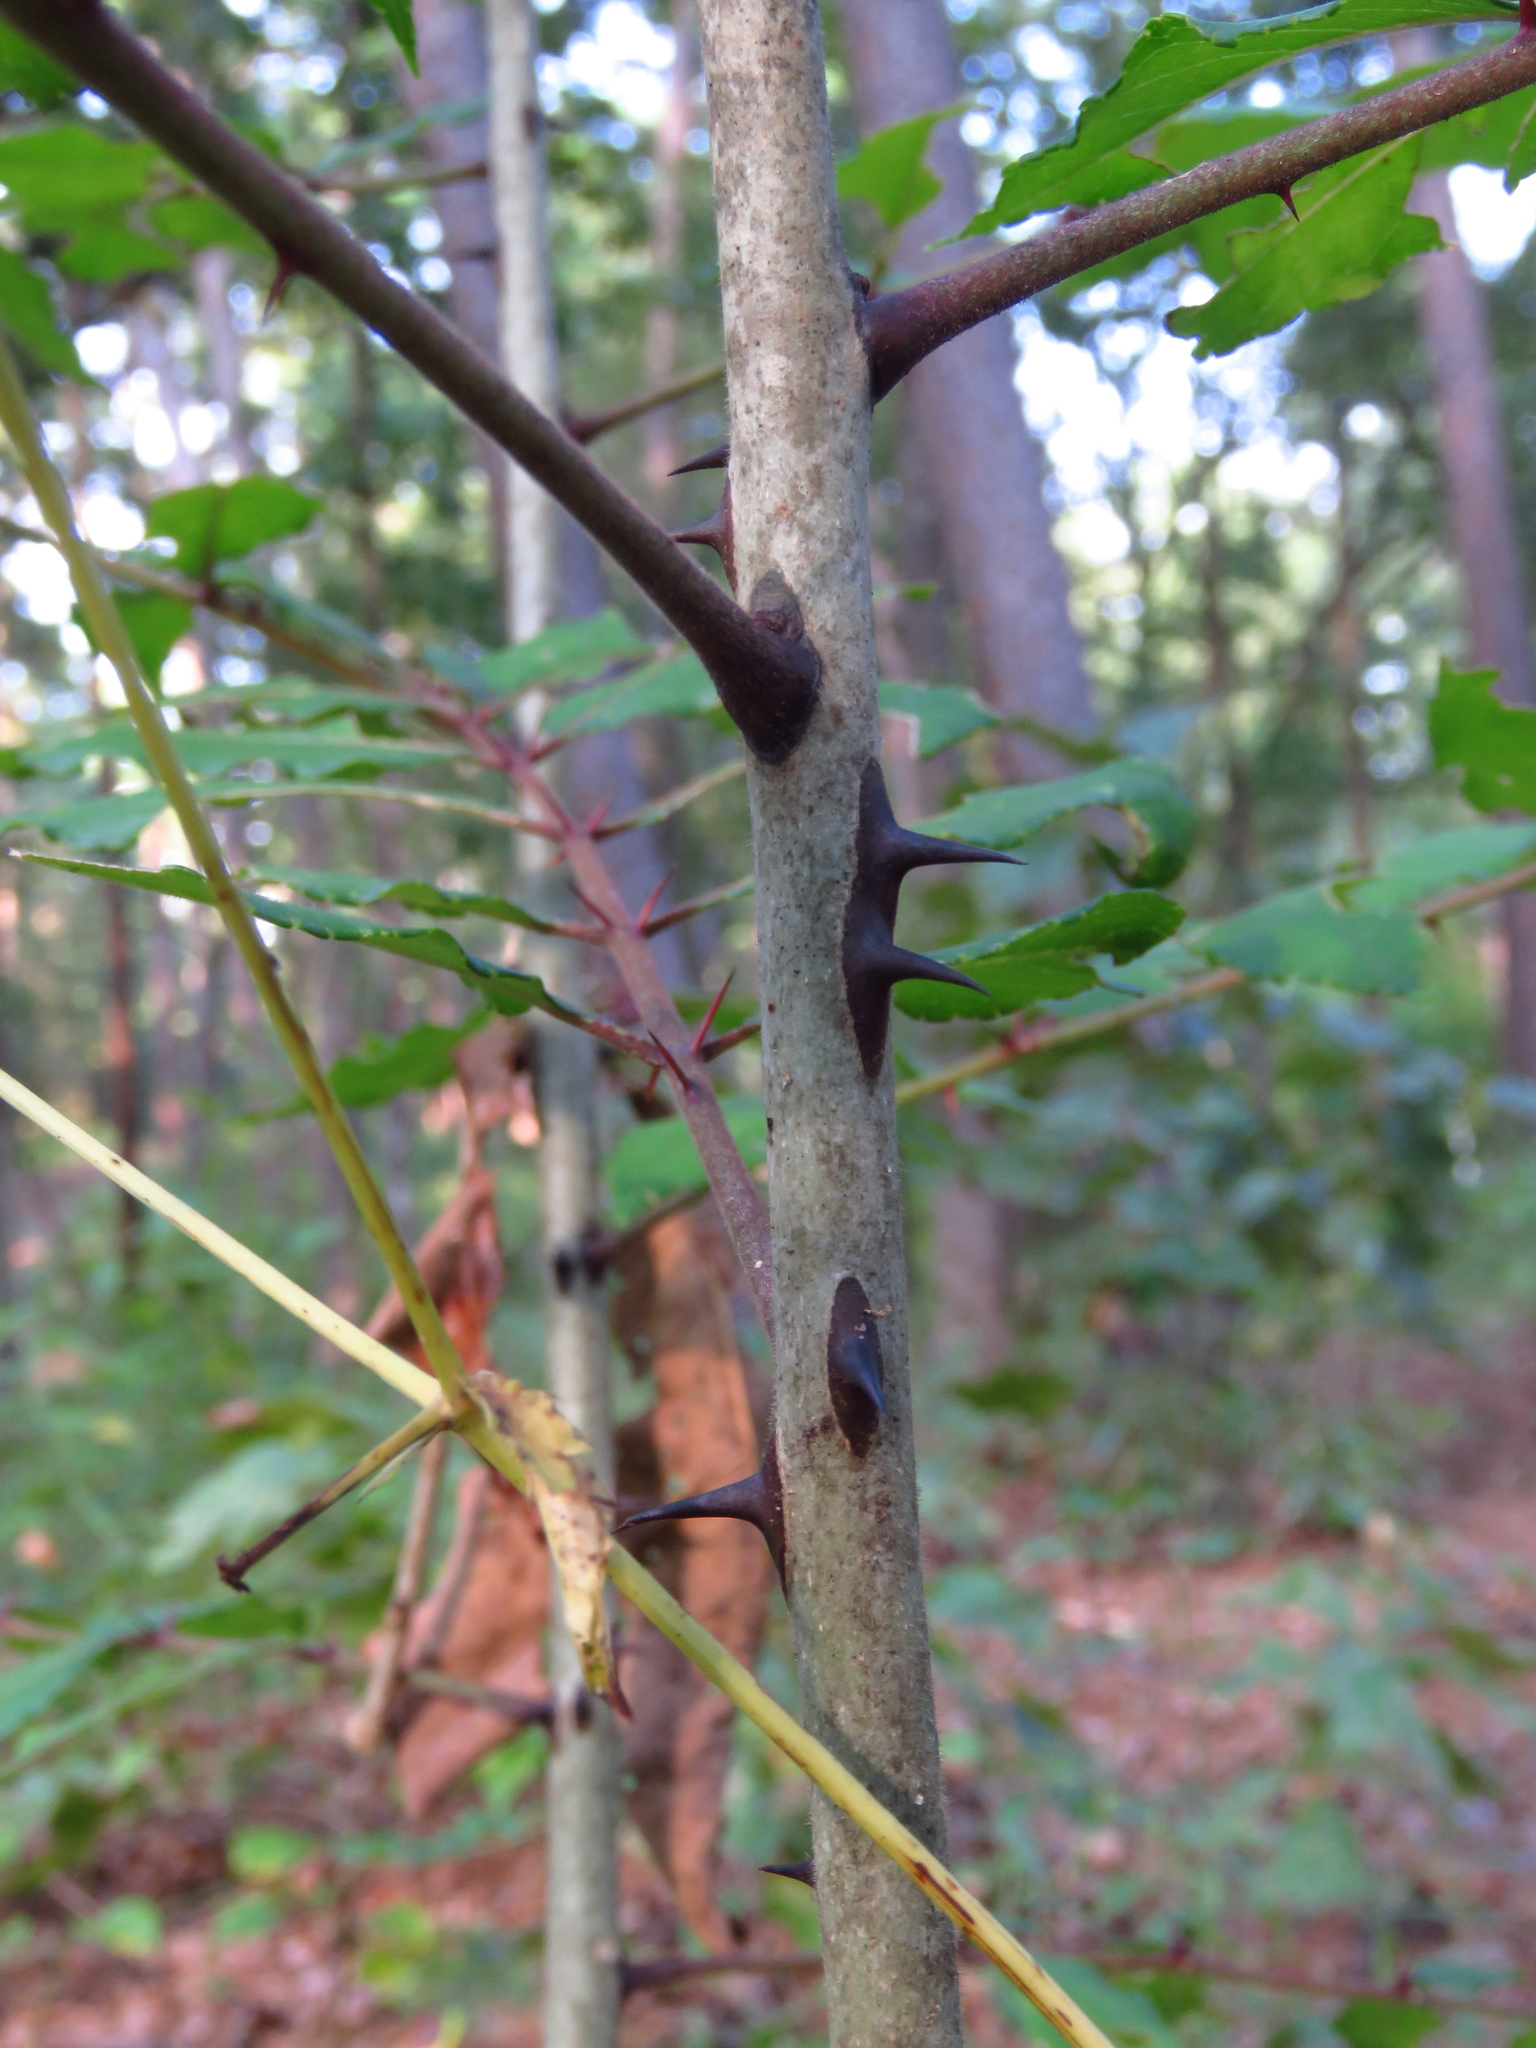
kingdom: Plantae
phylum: Tracheophyta
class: Magnoliopsida
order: Sapindales
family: Rutaceae
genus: Zanthoxylum
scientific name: Zanthoxylum clava-herculis
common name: Hercules'-club
